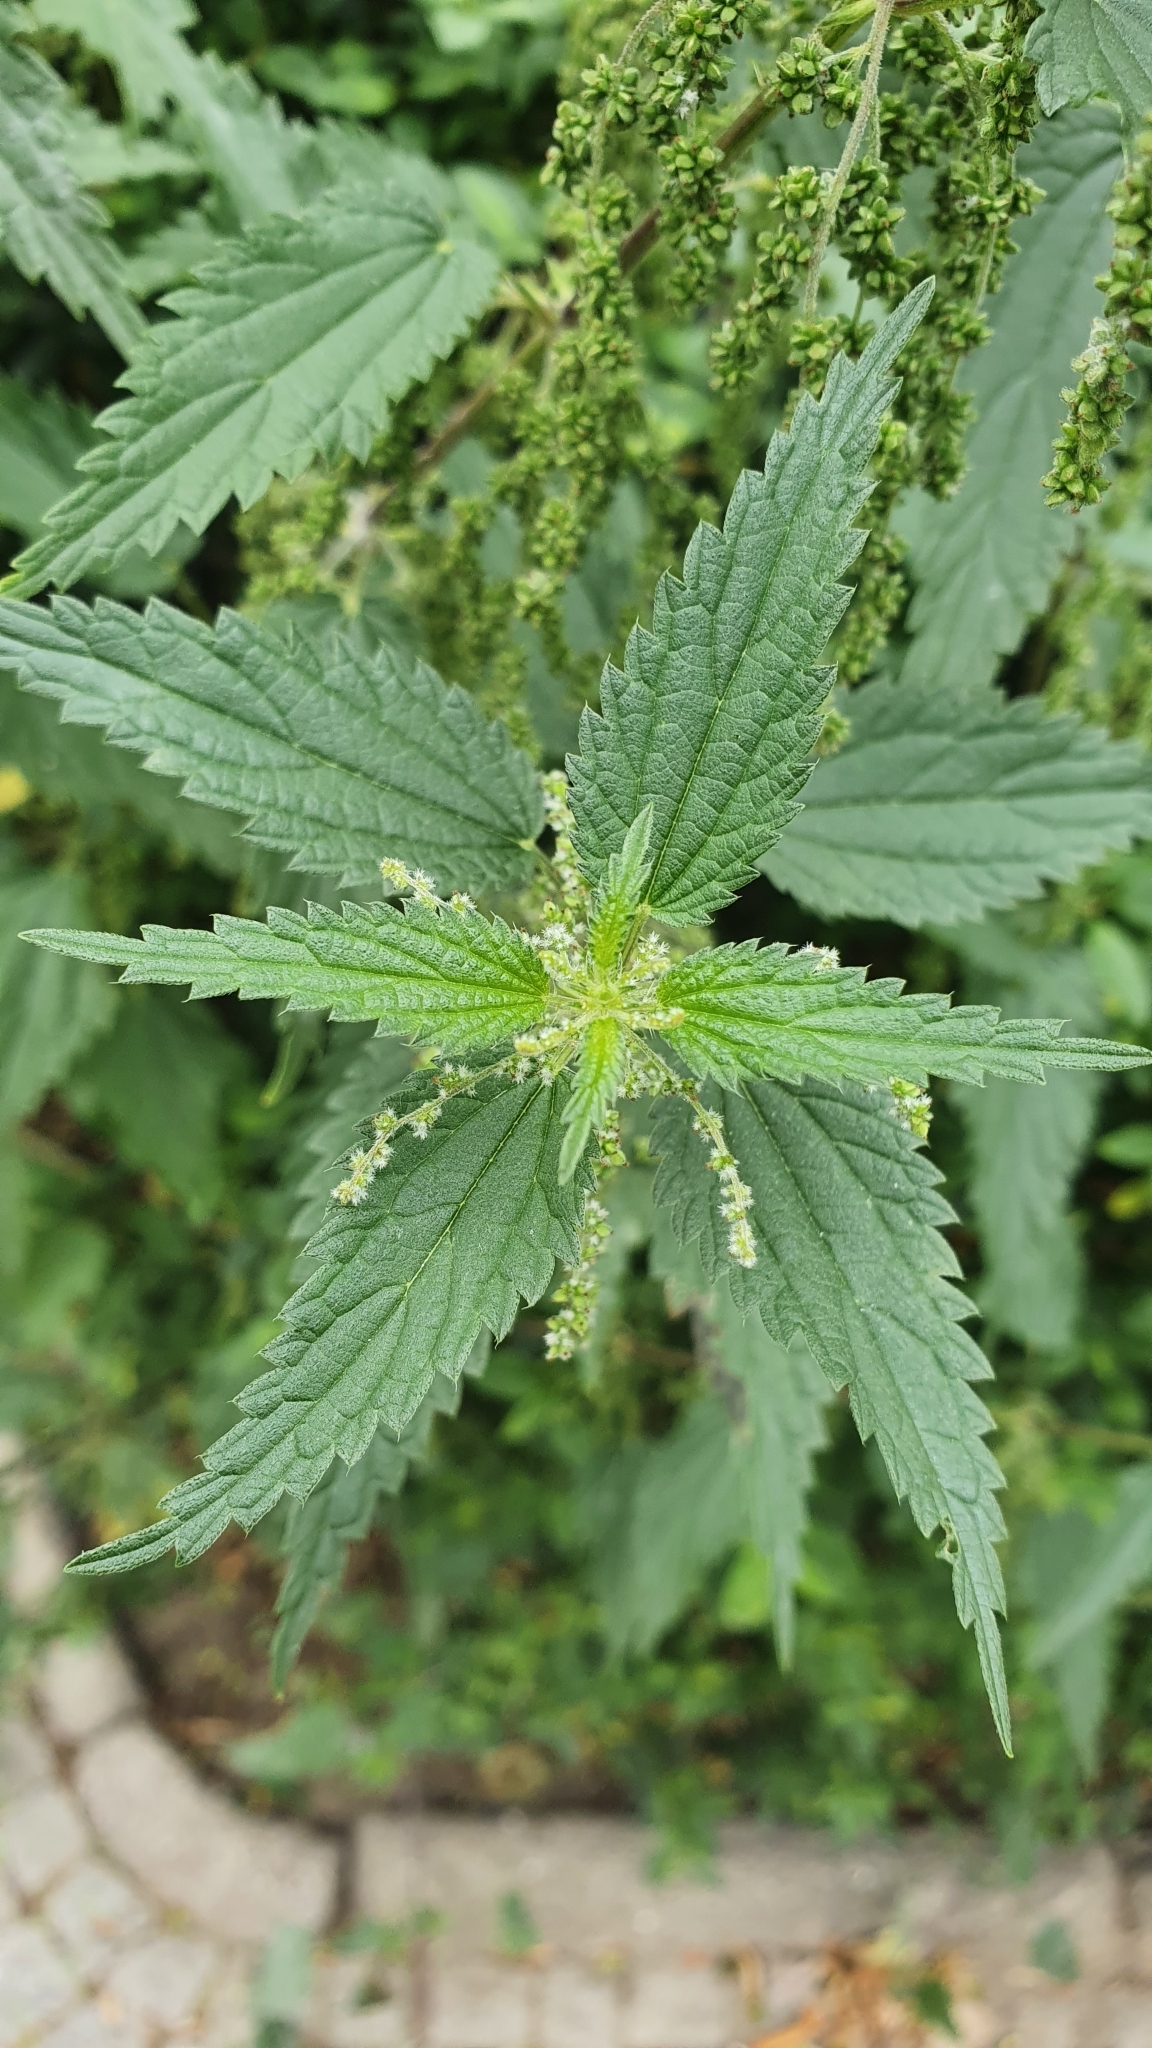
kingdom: Plantae
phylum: Tracheophyta
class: Magnoliopsida
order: Rosales
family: Urticaceae
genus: Urtica
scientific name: Urtica dioica
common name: Common nettle
